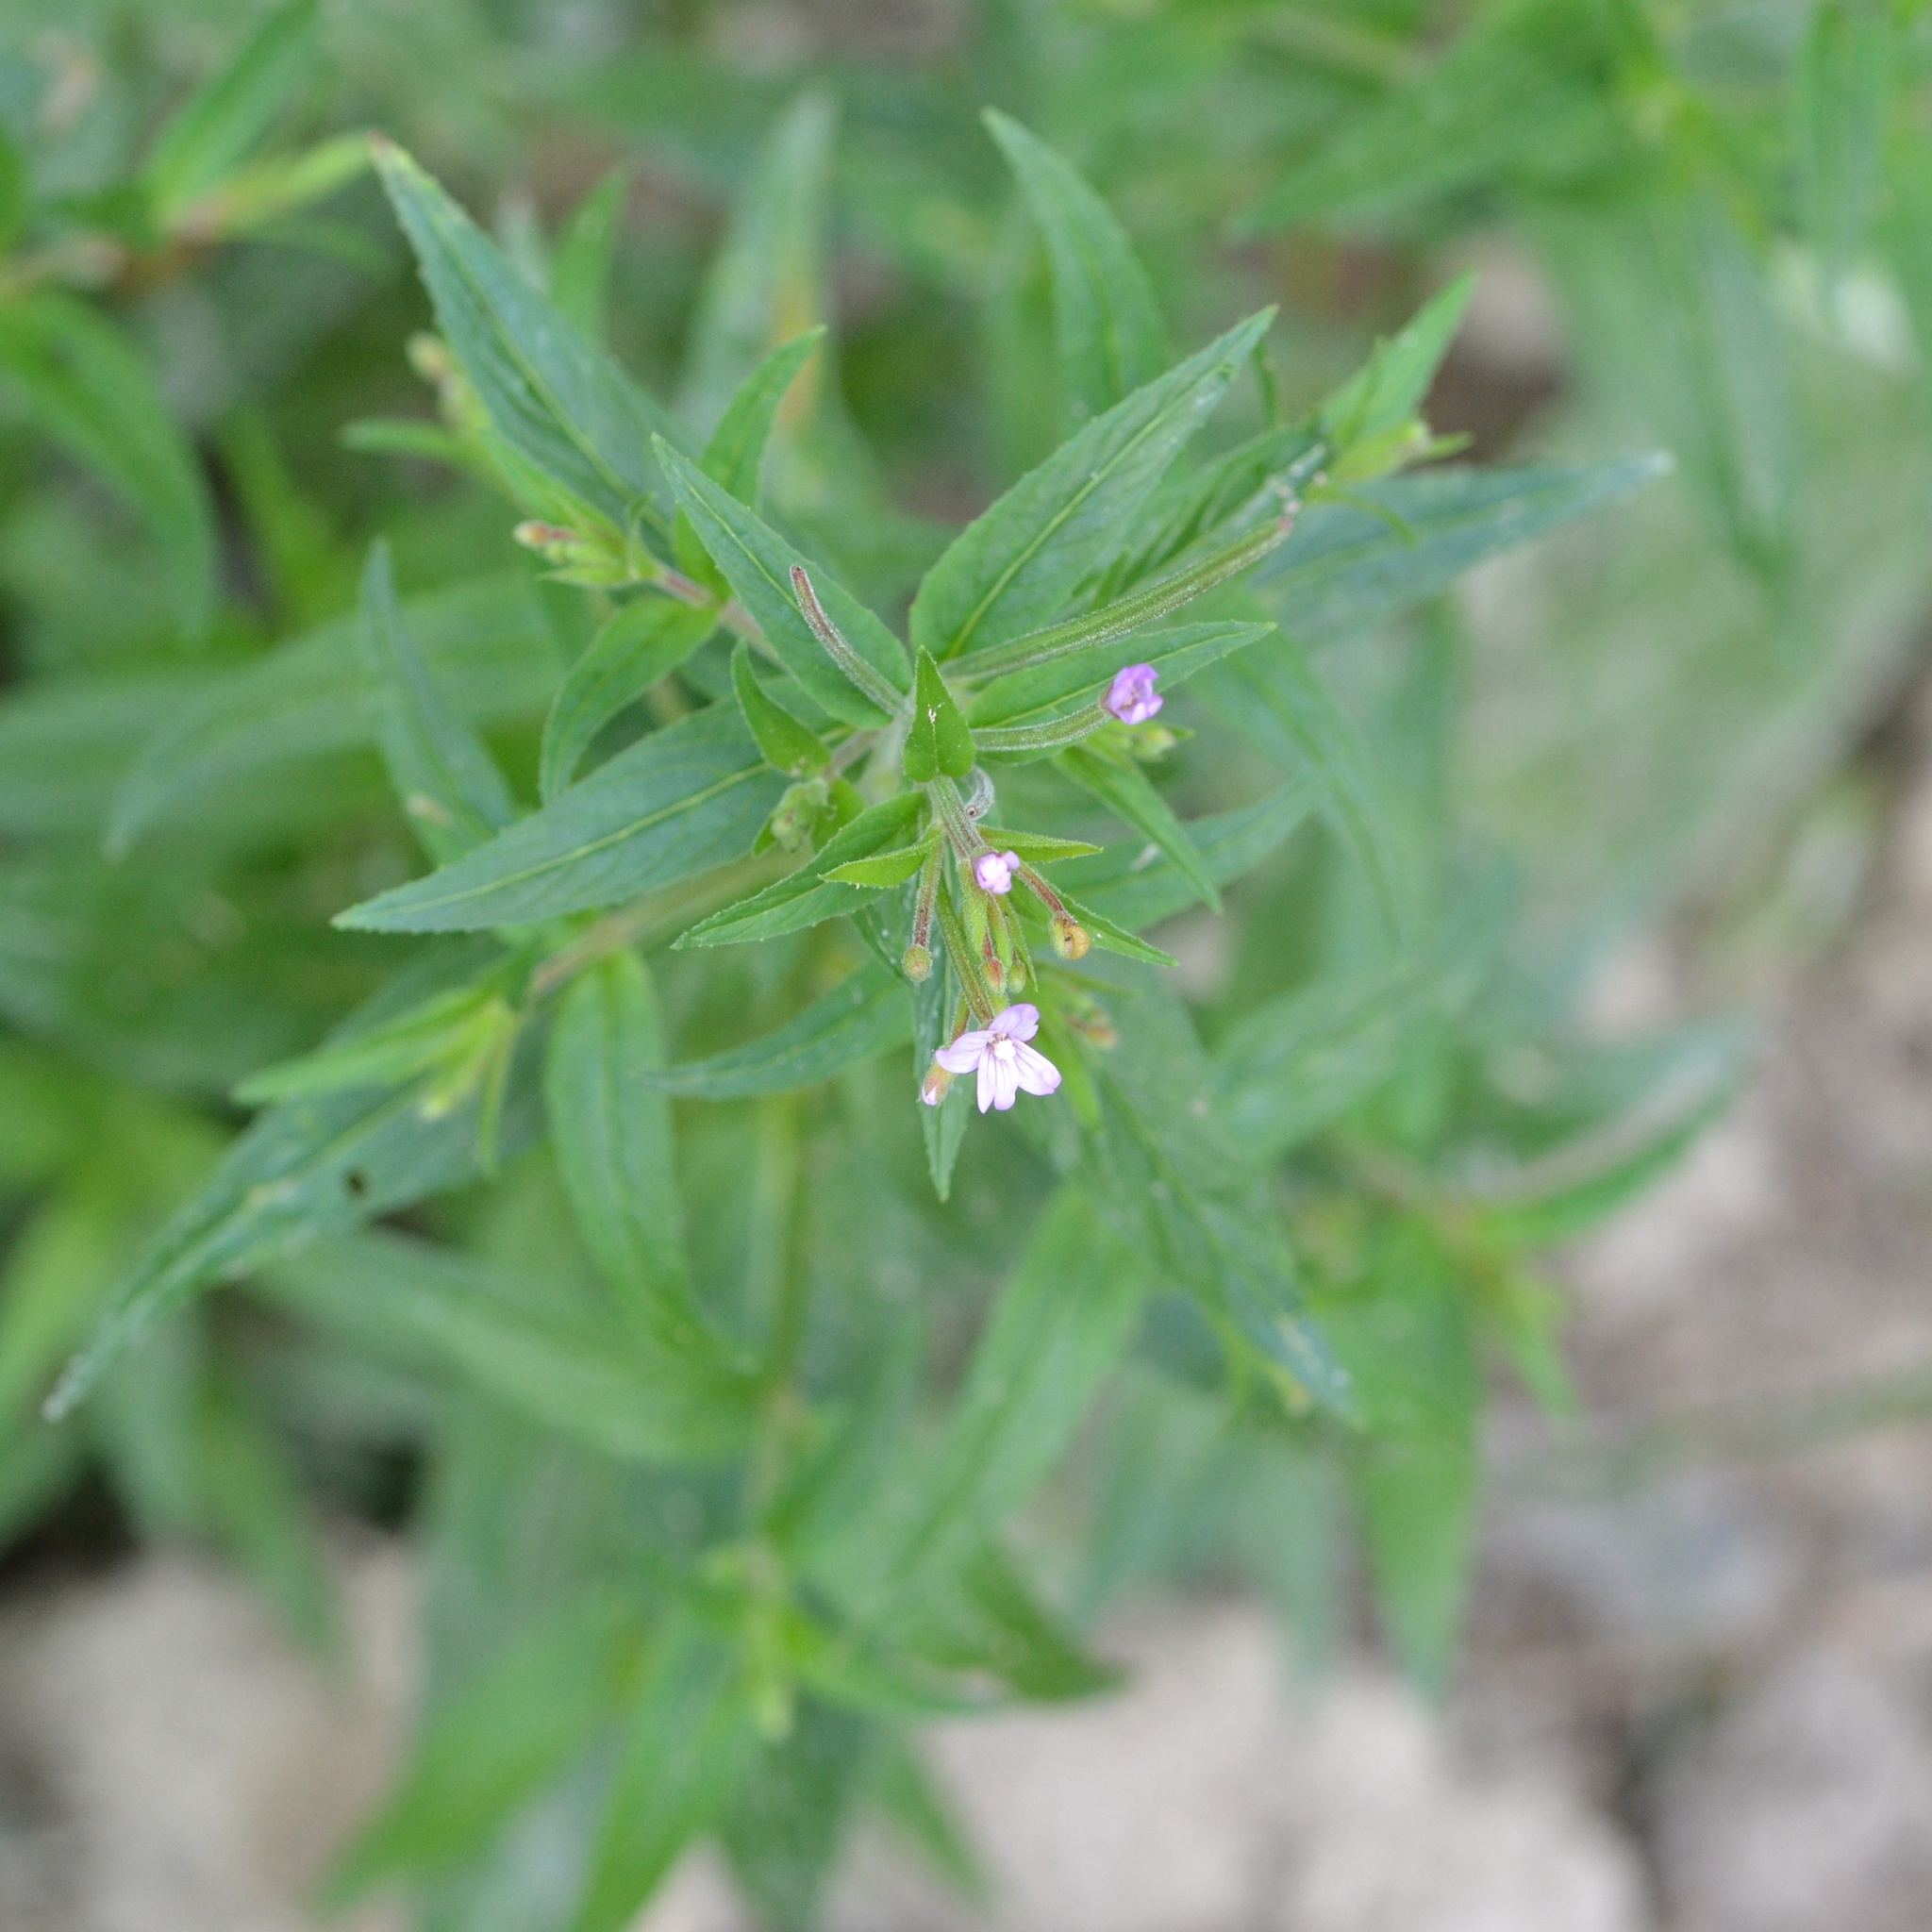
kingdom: Plantae
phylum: Tracheophyta
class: Magnoliopsida
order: Myrtales
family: Onagraceae
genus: Epilobium
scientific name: Epilobium ciliatum
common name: American willowherb
